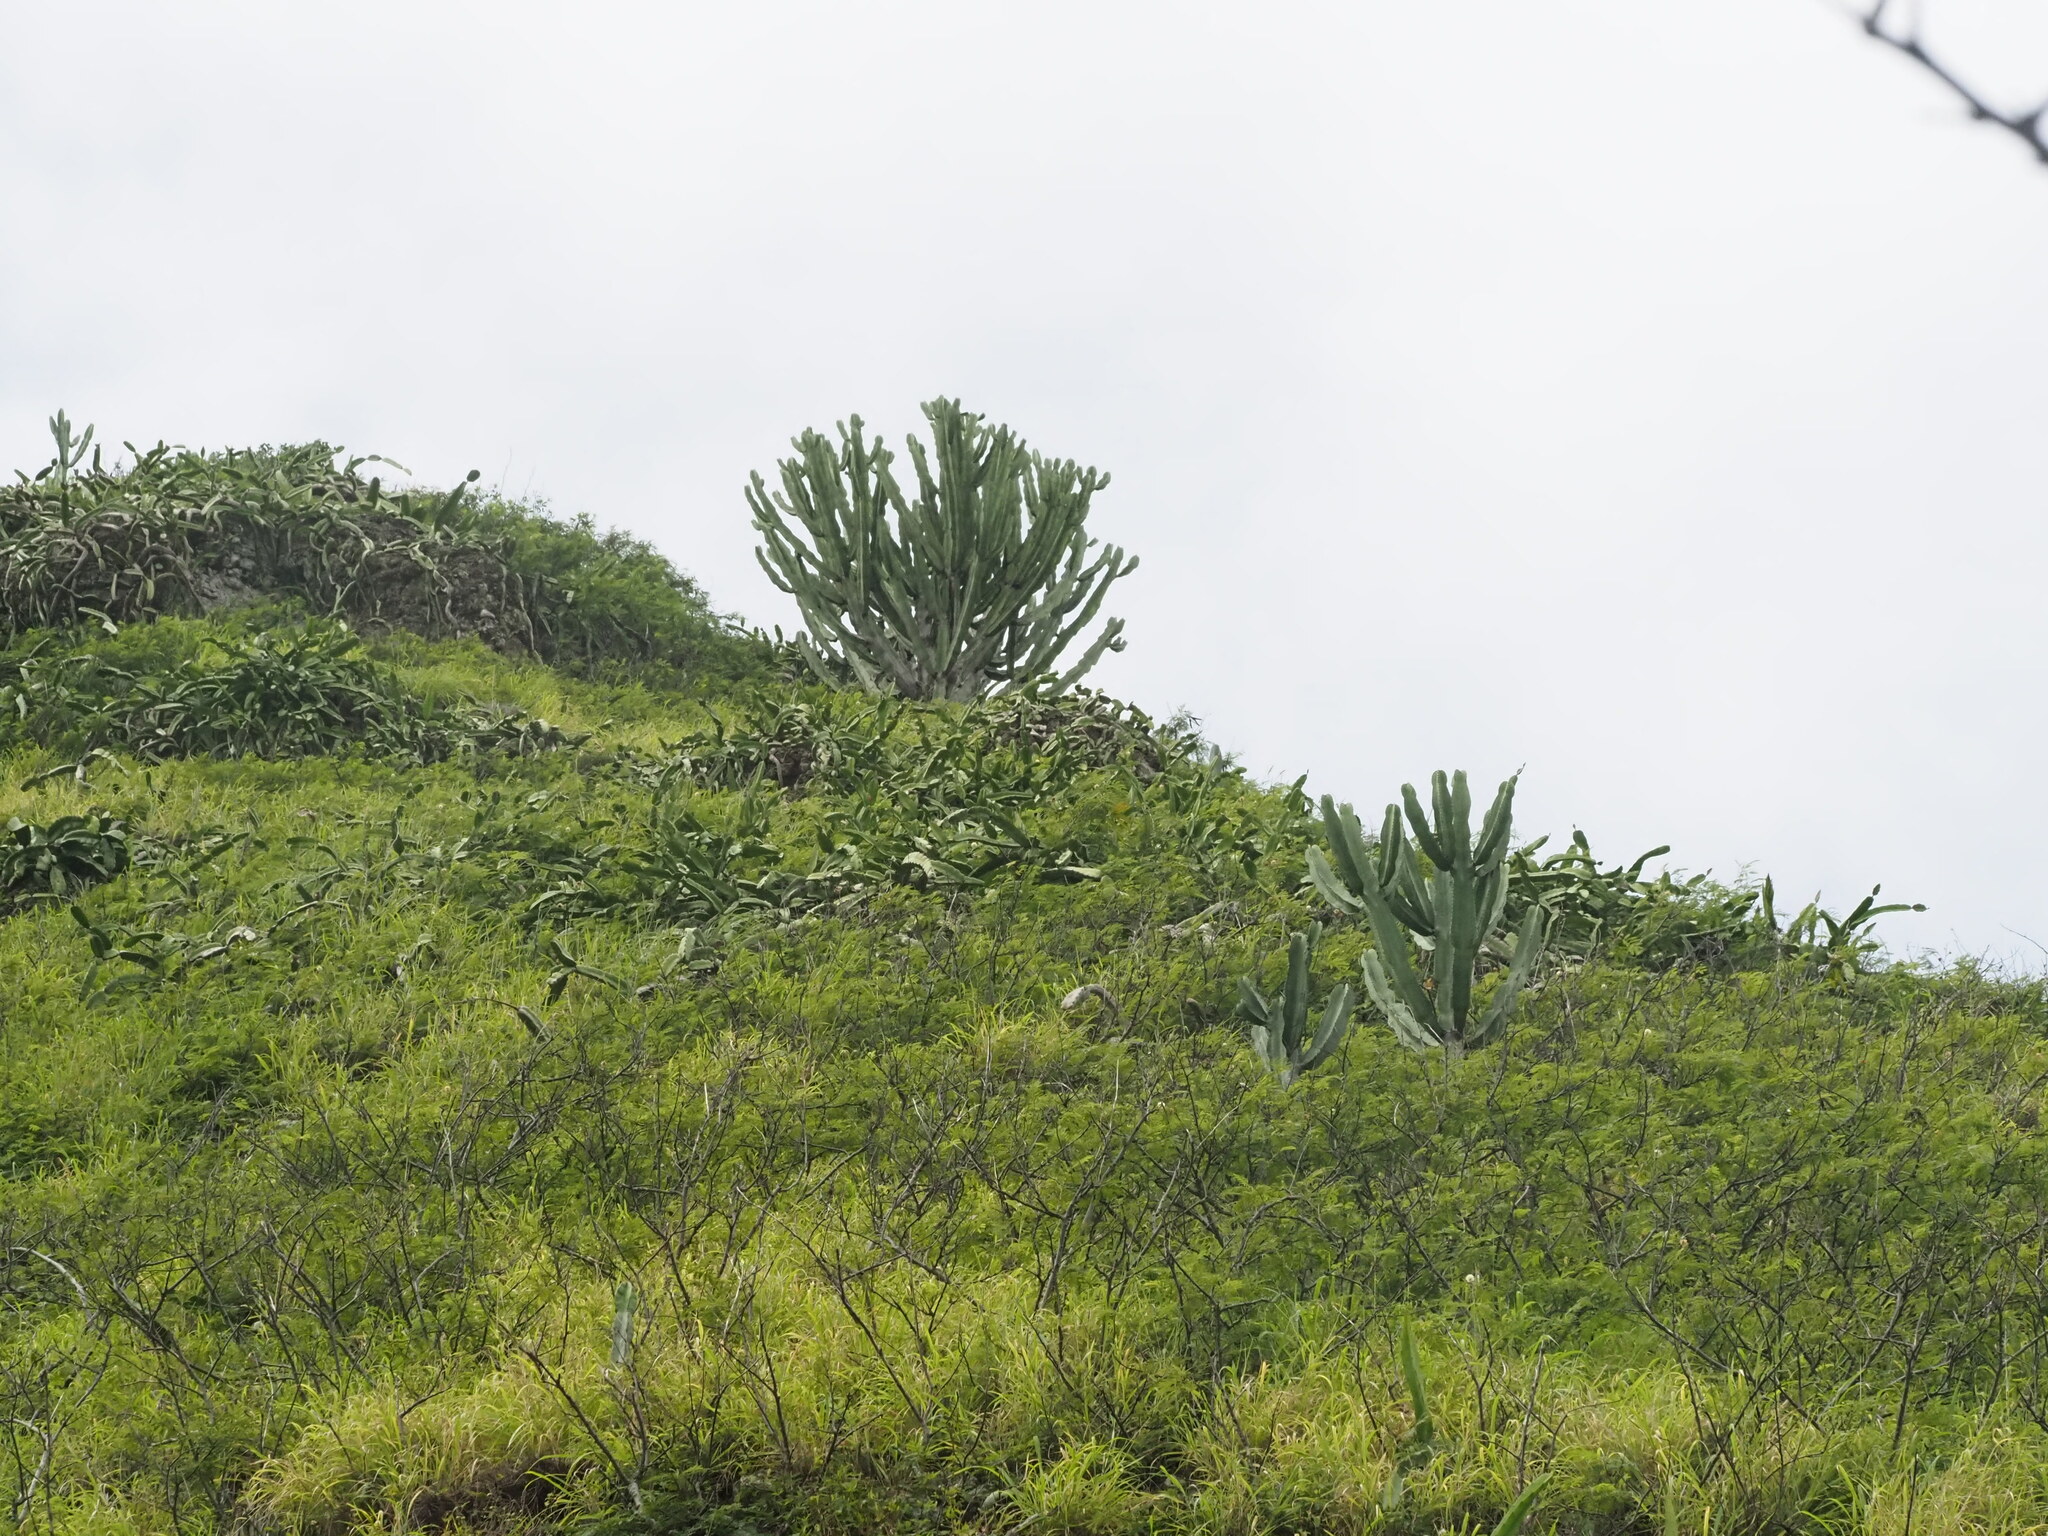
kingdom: Plantae
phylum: Tracheophyta
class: Magnoliopsida
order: Malpighiales
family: Euphorbiaceae
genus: Euphorbia
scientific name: Euphorbia ingens
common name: Cactus spurge
